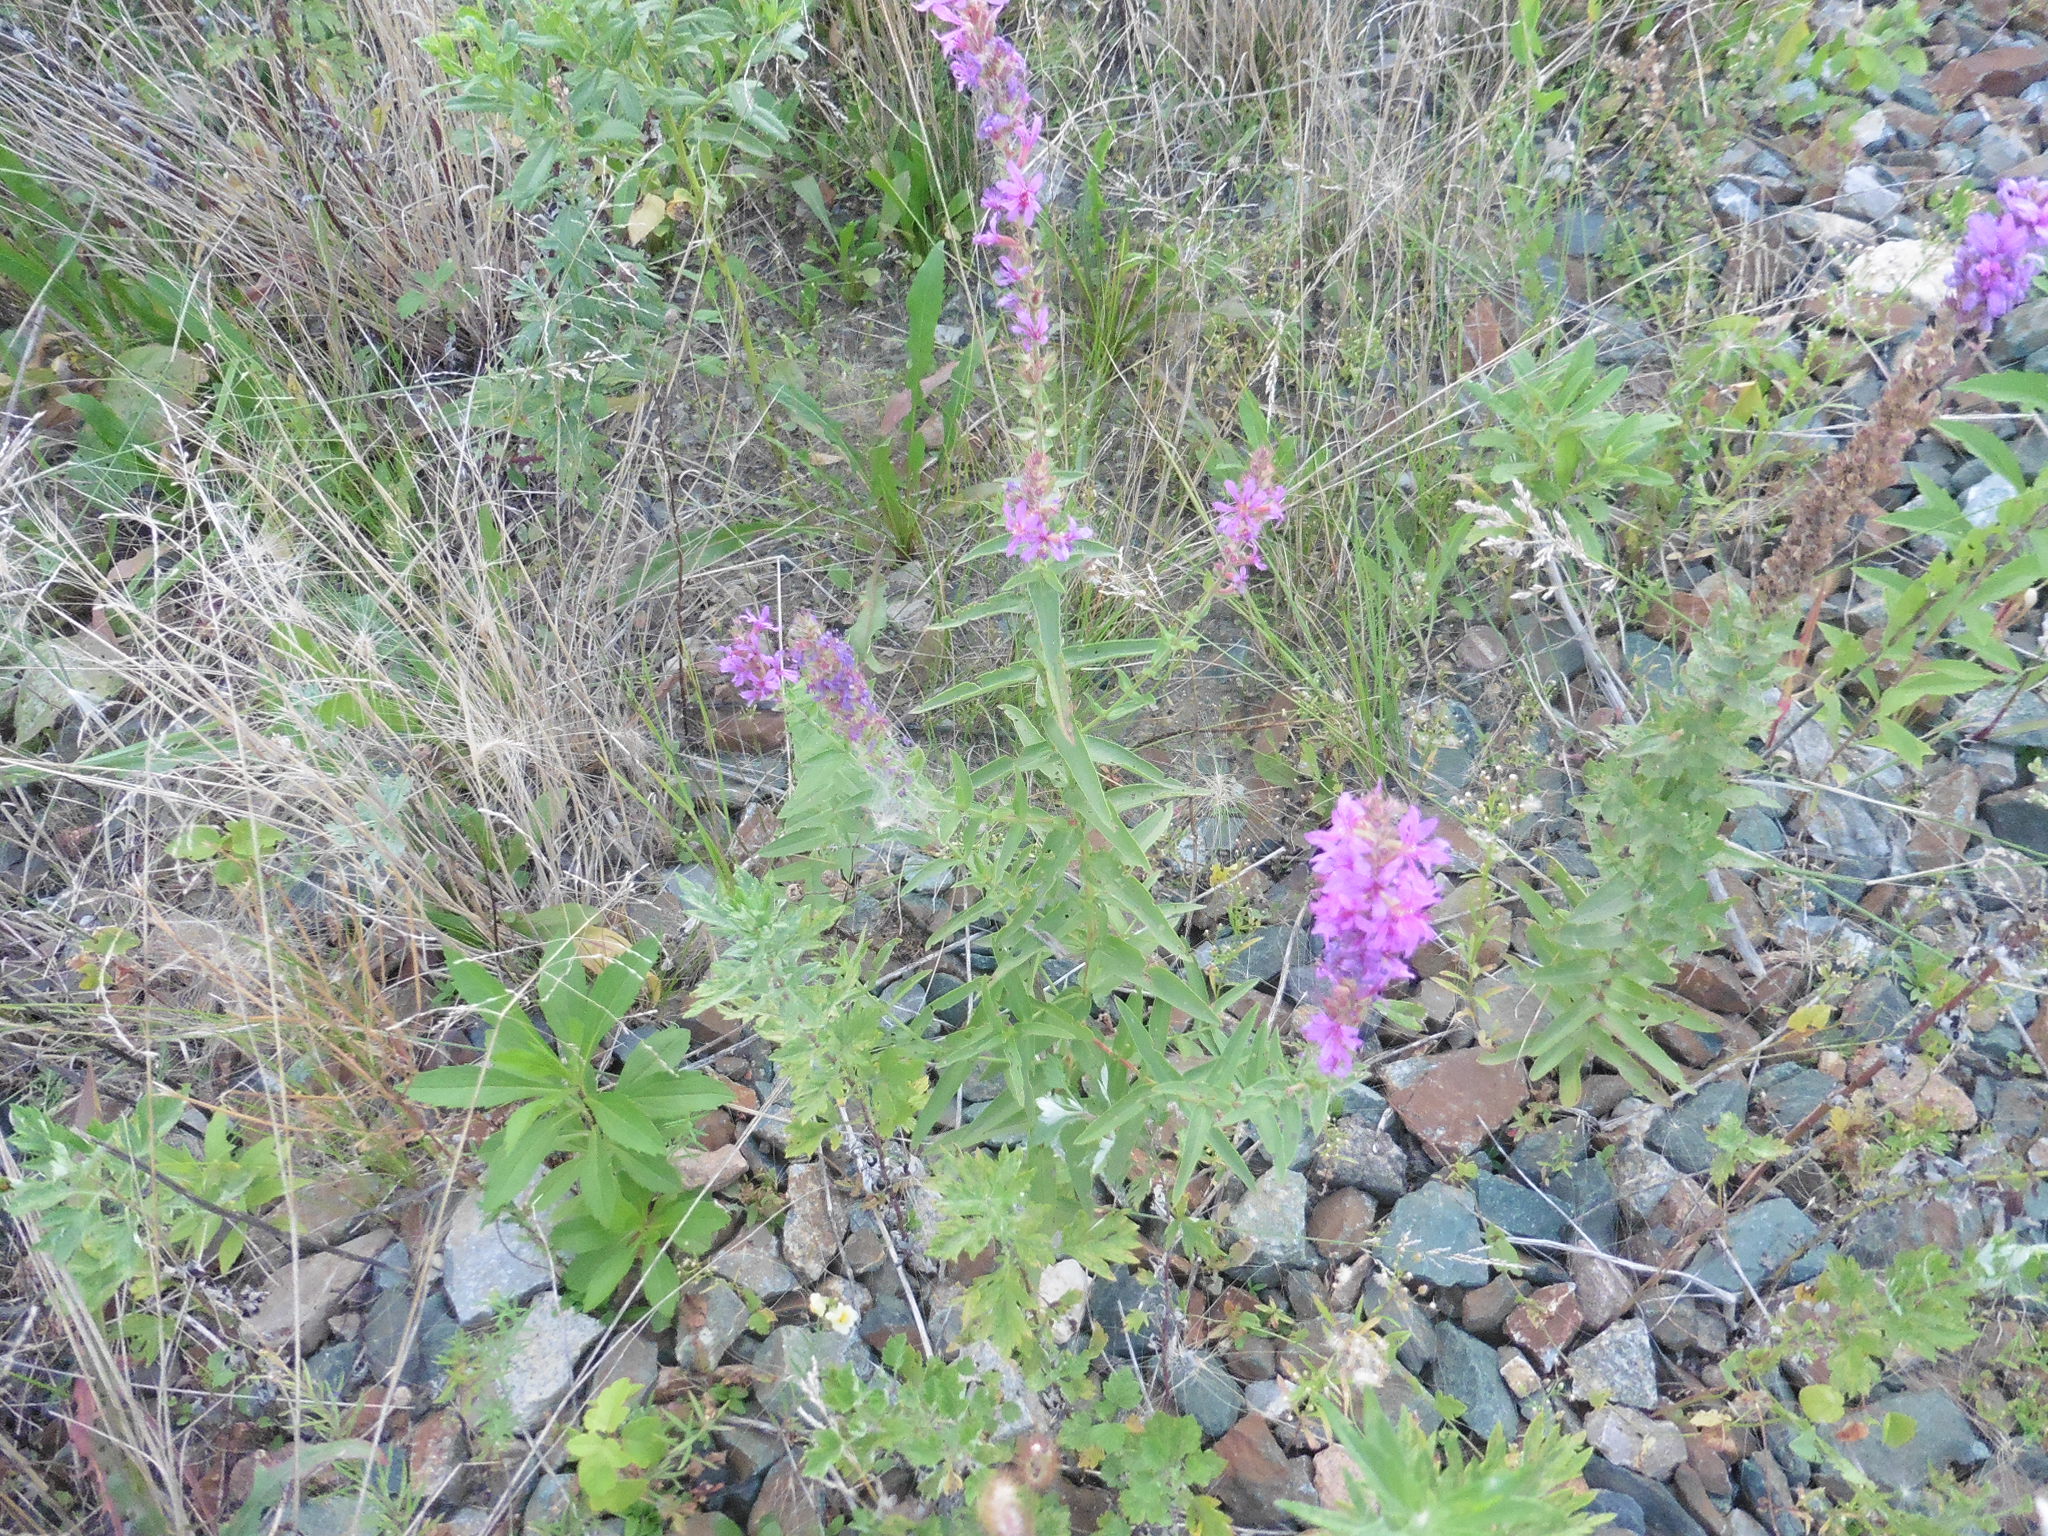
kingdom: Plantae
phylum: Tracheophyta
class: Magnoliopsida
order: Myrtales
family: Lythraceae
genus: Lythrum
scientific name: Lythrum salicaria
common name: Purple loosestrife
